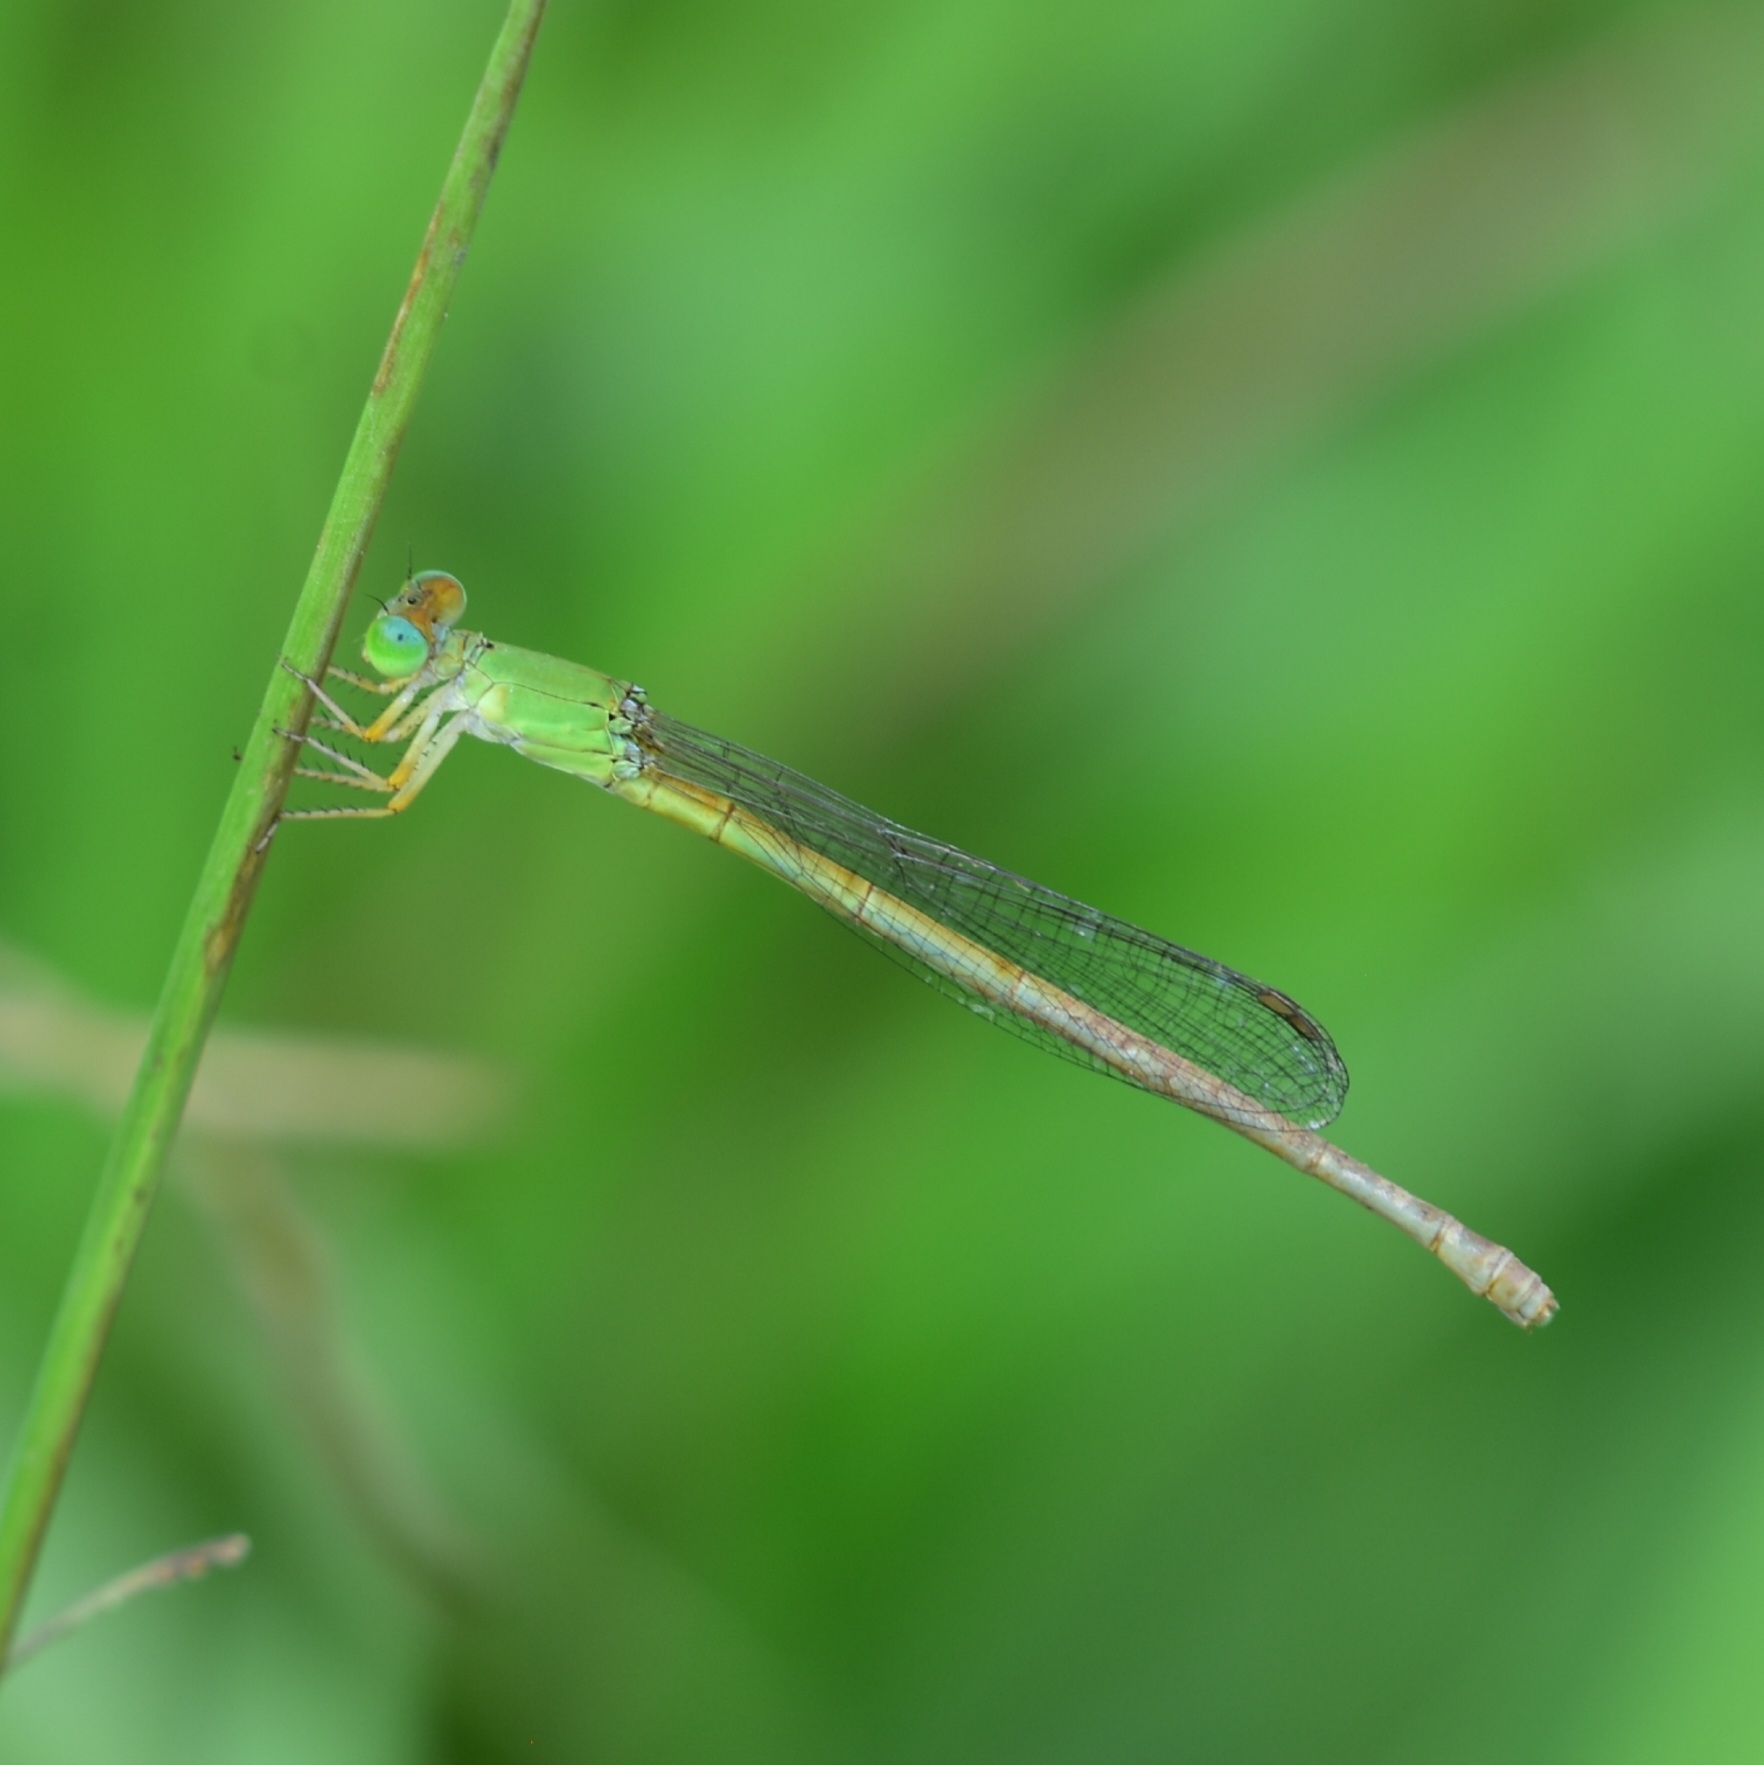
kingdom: Animalia
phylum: Arthropoda
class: Insecta
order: Odonata
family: Coenagrionidae
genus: Ceriagrion
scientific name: Ceriagrion coromandelianum
